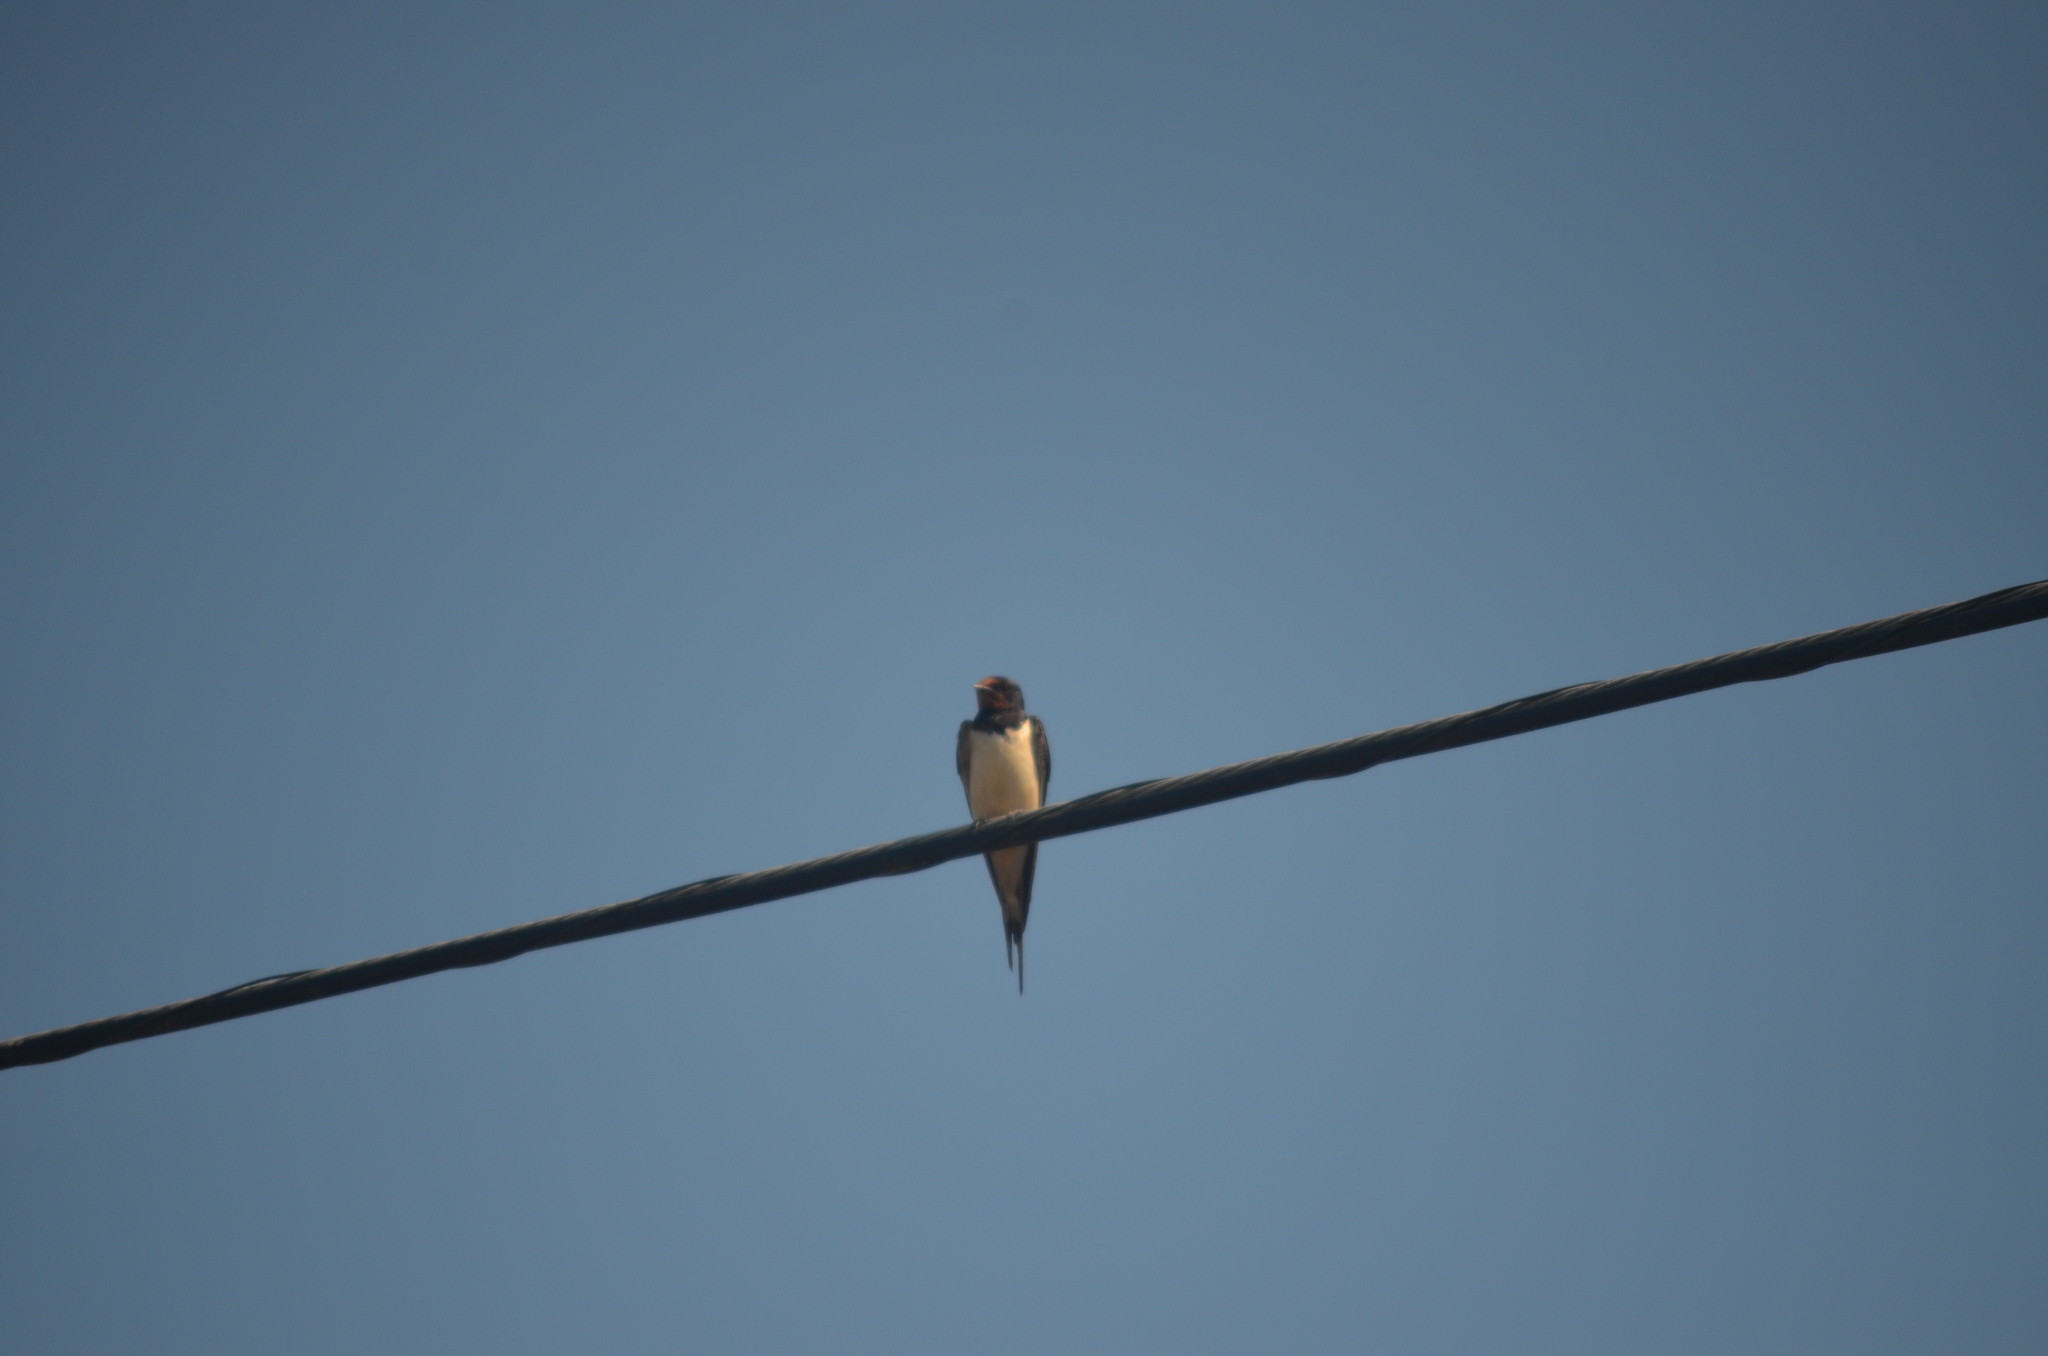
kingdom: Animalia
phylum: Chordata
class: Aves
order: Passeriformes
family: Hirundinidae
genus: Hirundo
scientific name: Hirundo rustica
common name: Barn swallow
